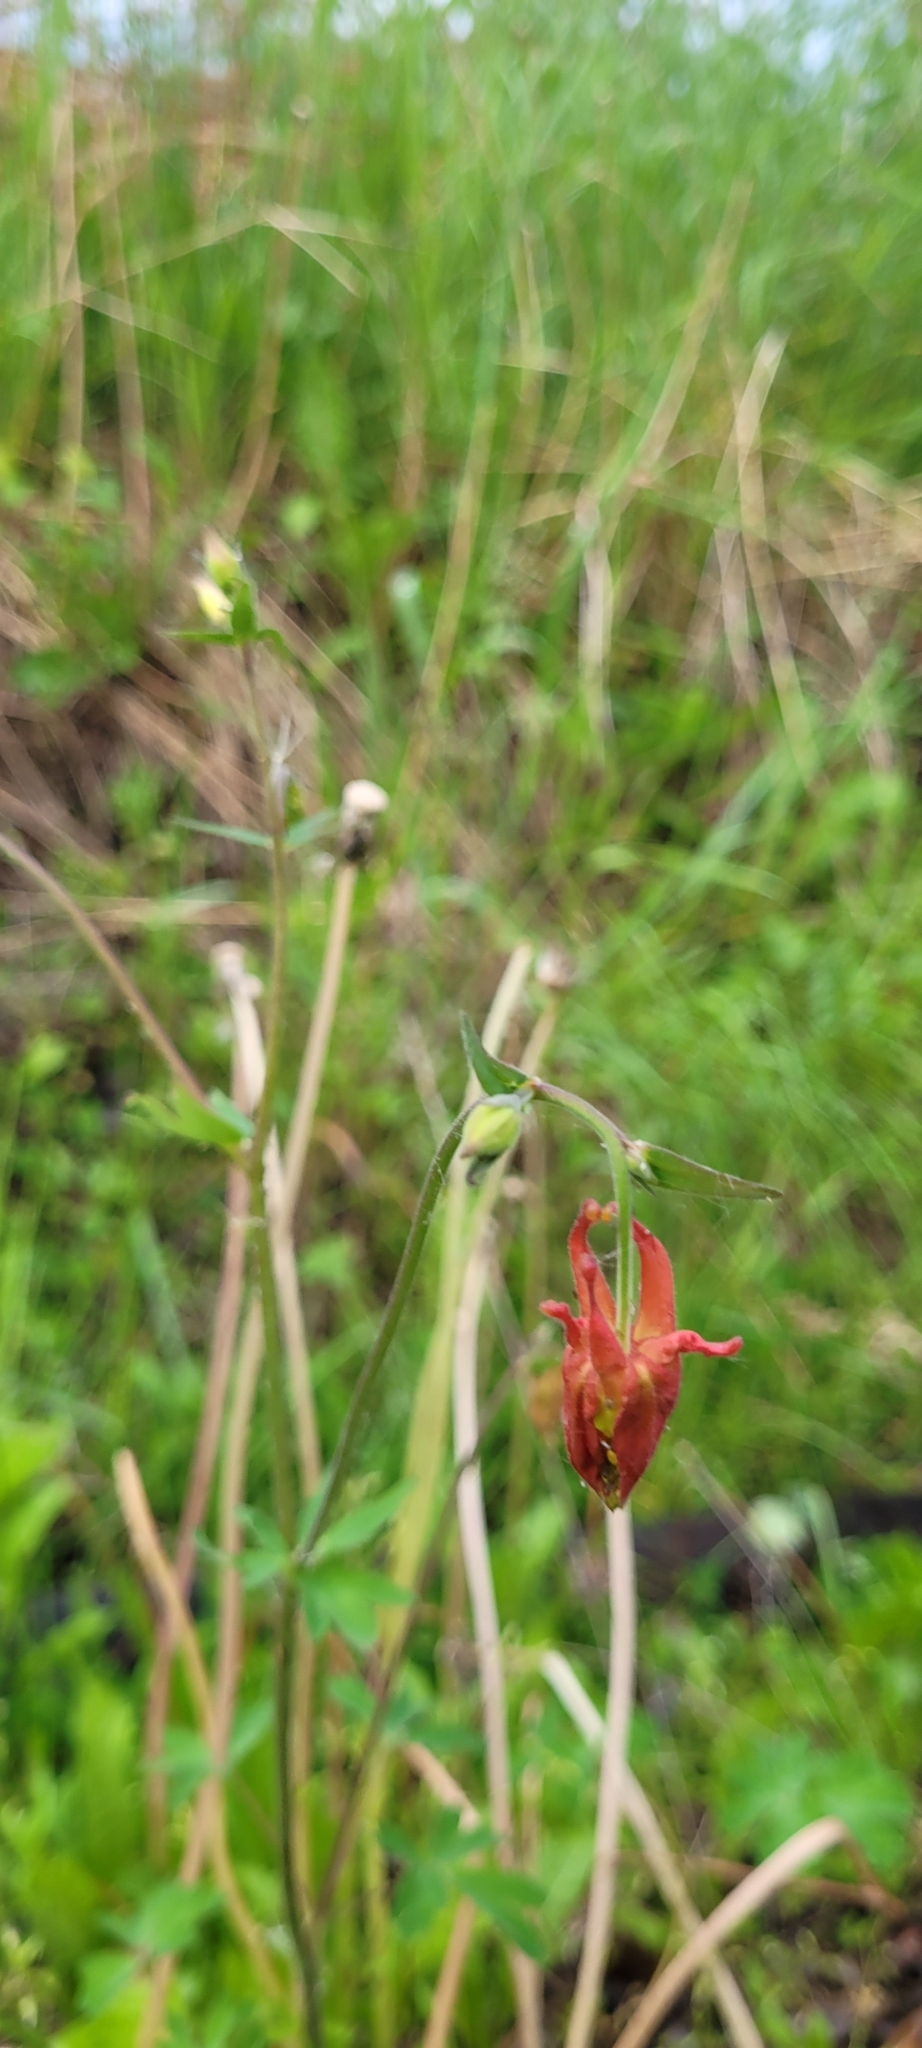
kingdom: Plantae
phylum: Tracheophyta
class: Magnoliopsida
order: Ranunculales
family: Ranunculaceae
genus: Aquilegia
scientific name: Aquilegia formosa
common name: Sitka columbine
